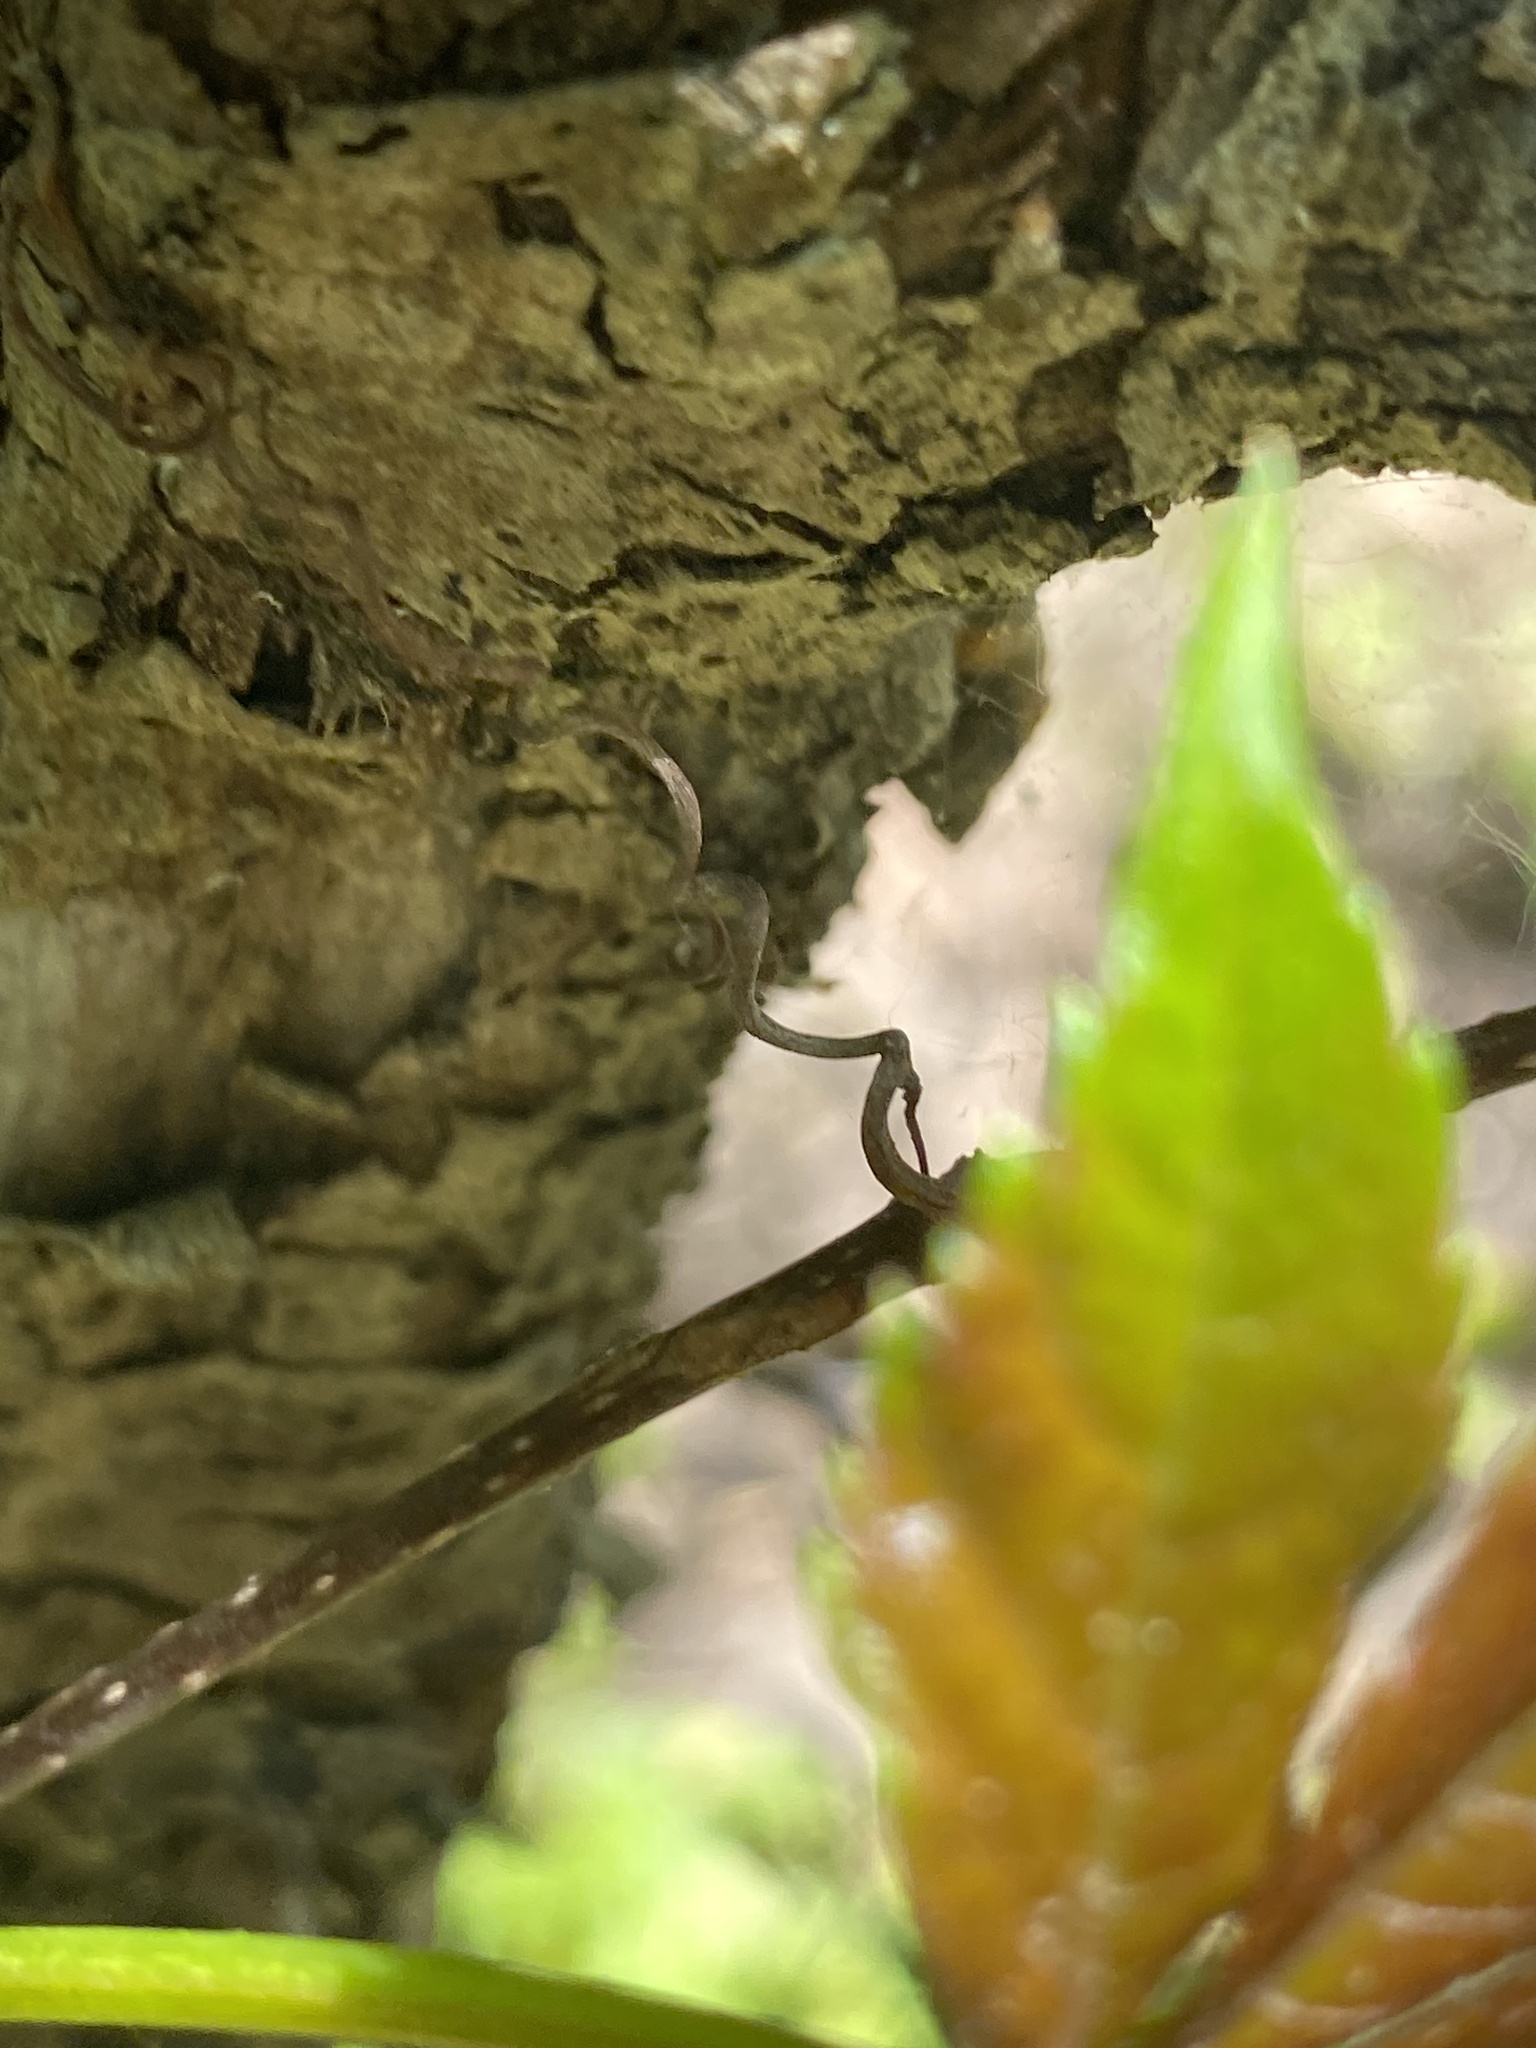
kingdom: Plantae
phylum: Tracheophyta
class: Magnoliopsida
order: Vitales
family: Vitaceae
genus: Parthenocissus
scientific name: Parthenocissus quinquefolia
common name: Virginia-creeper
